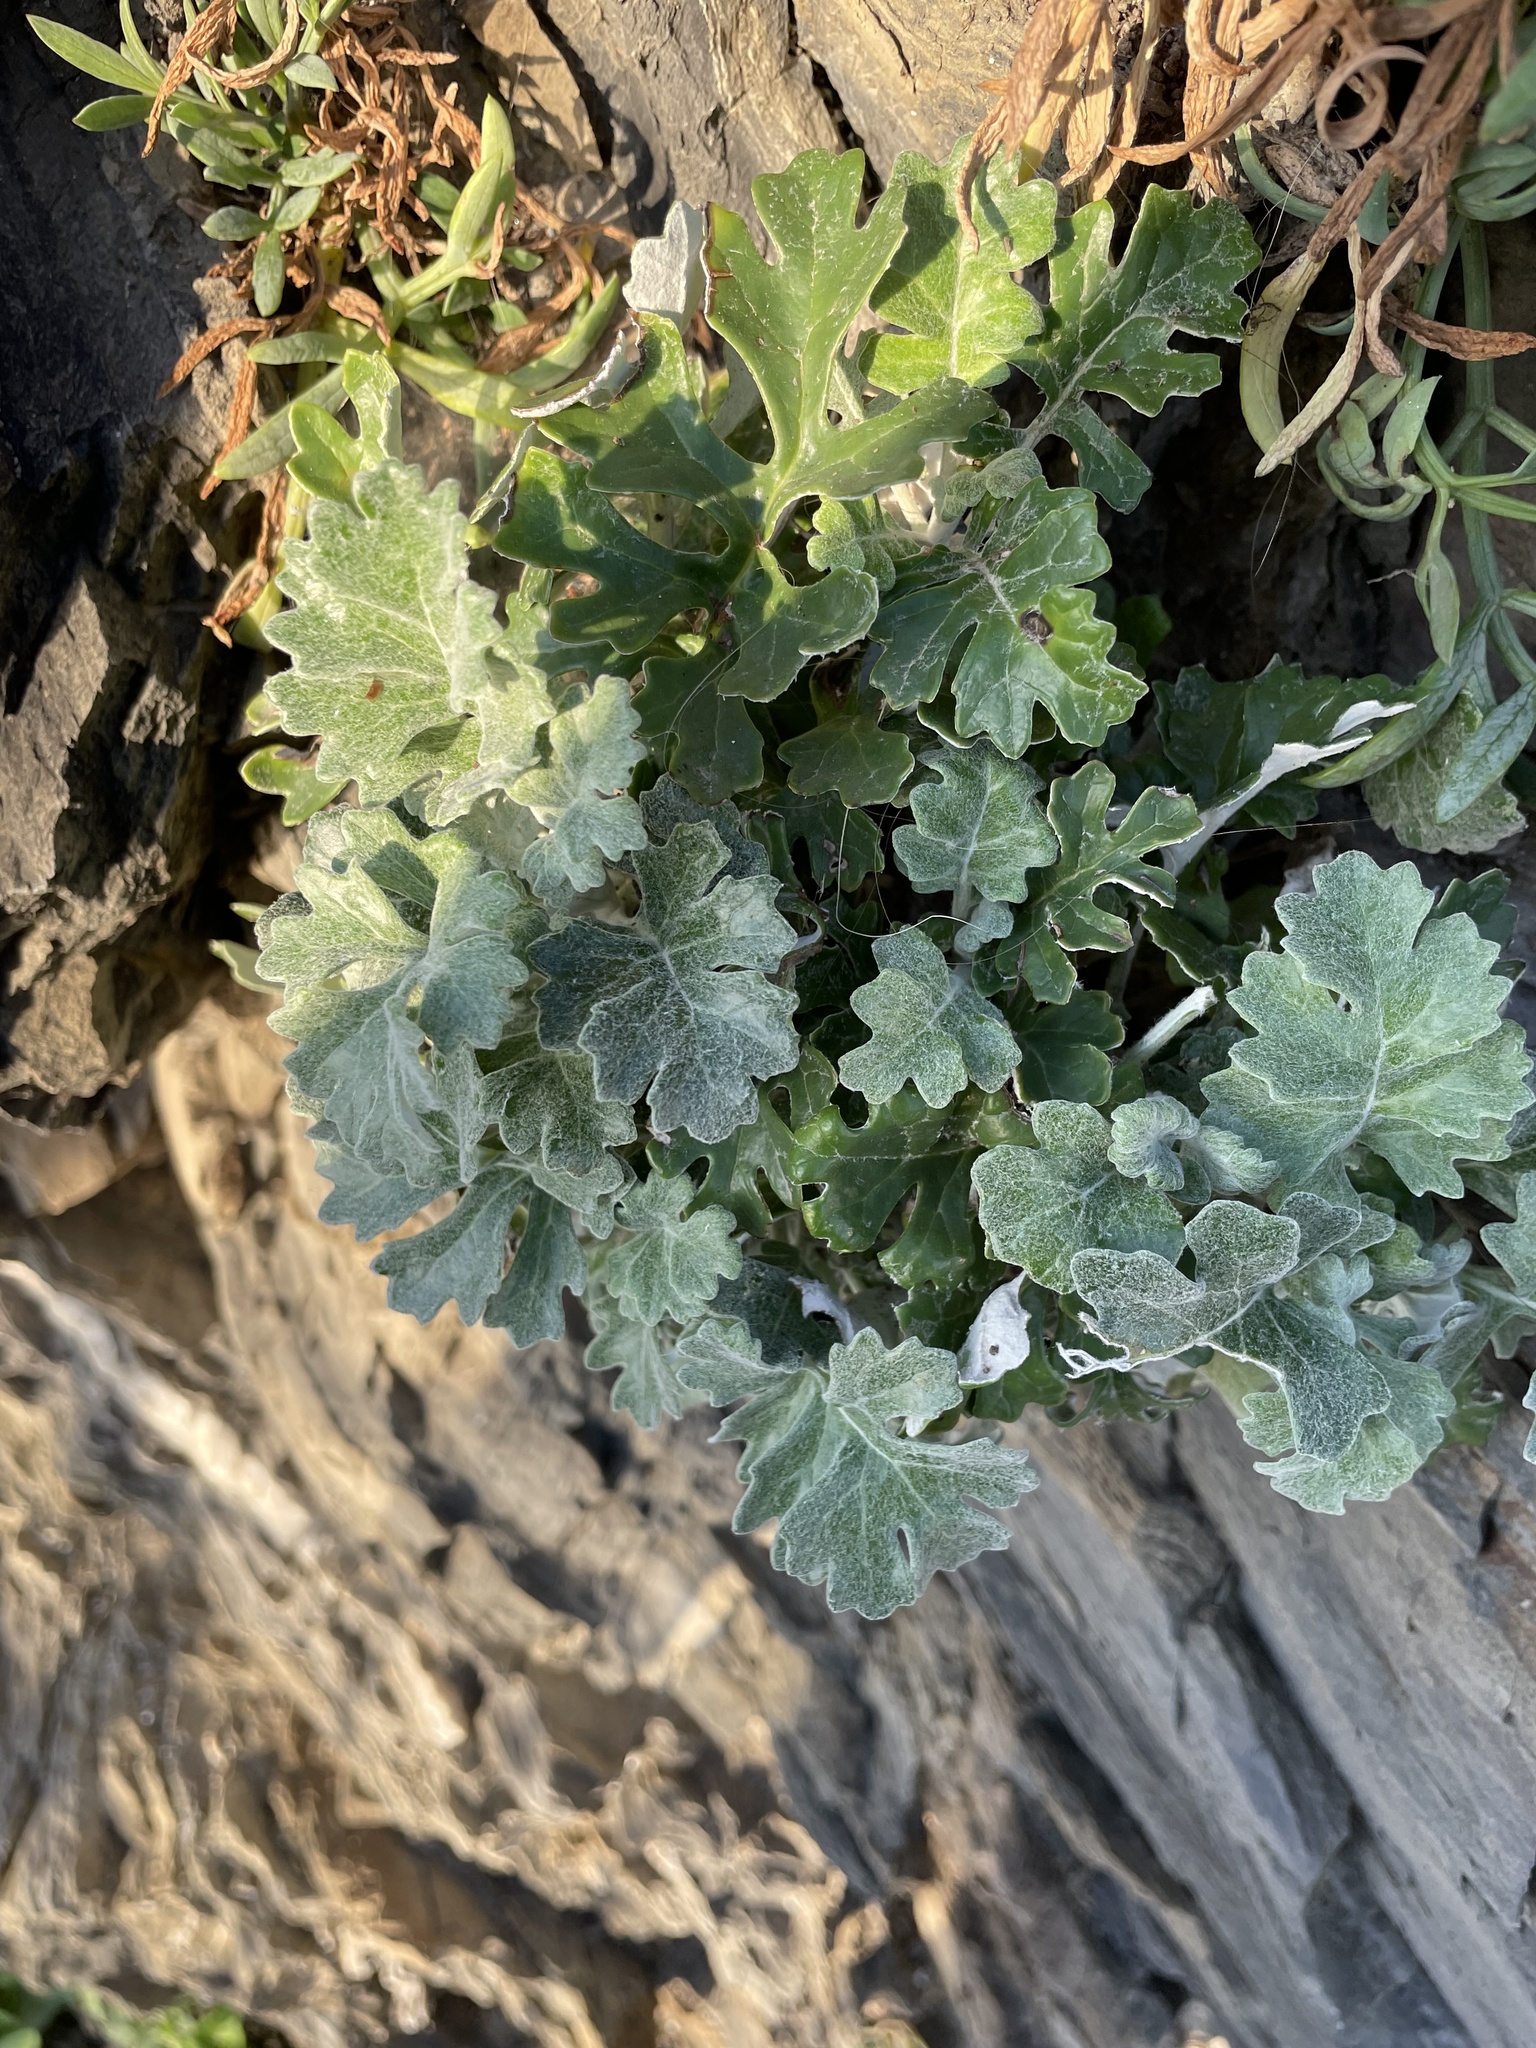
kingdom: Plantae
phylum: Tracheophyta
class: Magnoliopsida
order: Asterales
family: Asteraceae
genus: Jacobaea
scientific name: Jacobaea maritima
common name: Silver ragwort
